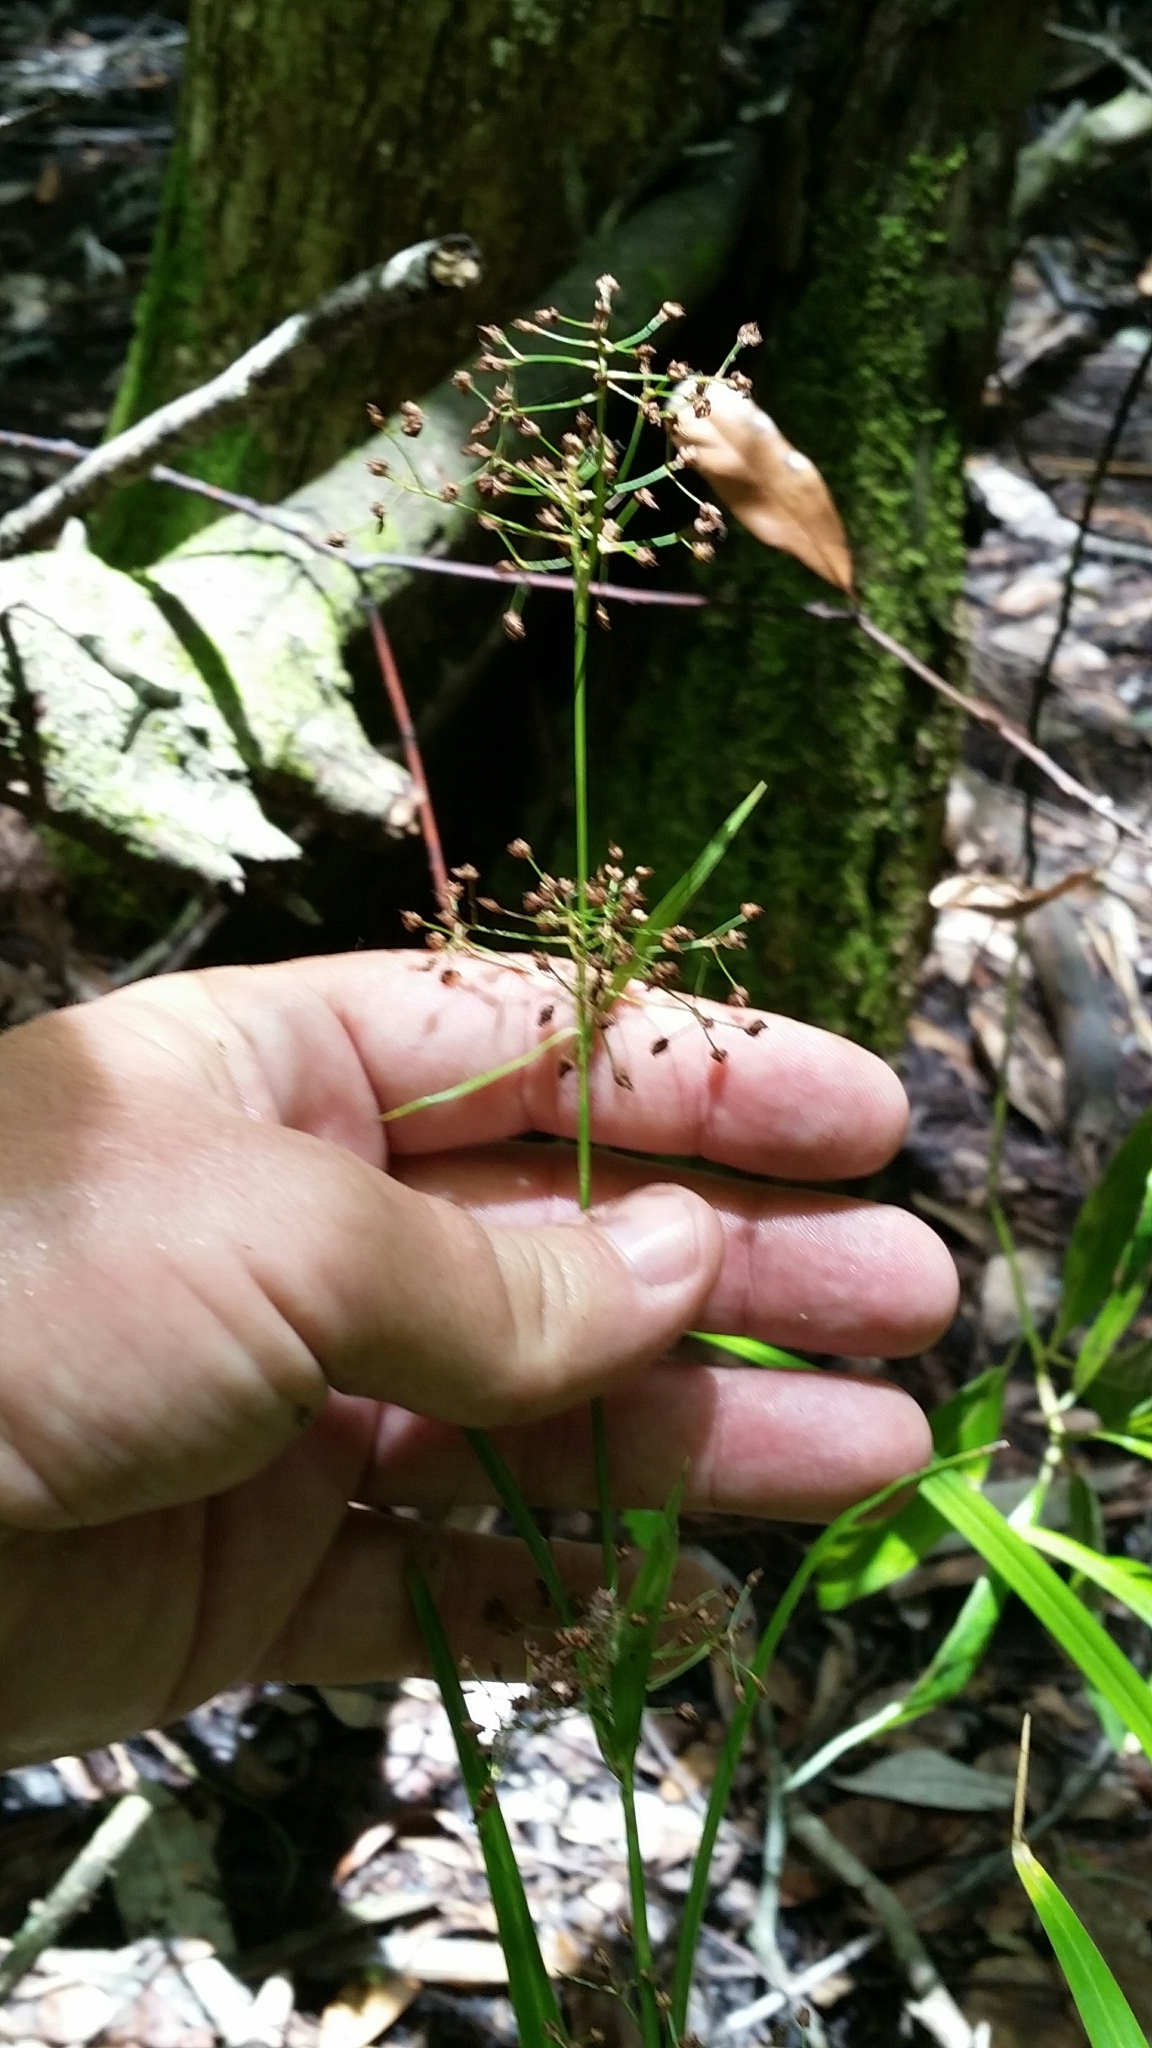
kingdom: Plantae
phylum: Tracheophyta
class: Liliopsida
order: Poales
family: Cyperaceae
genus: Rhynchospora
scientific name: Rhynchospora miliacea
